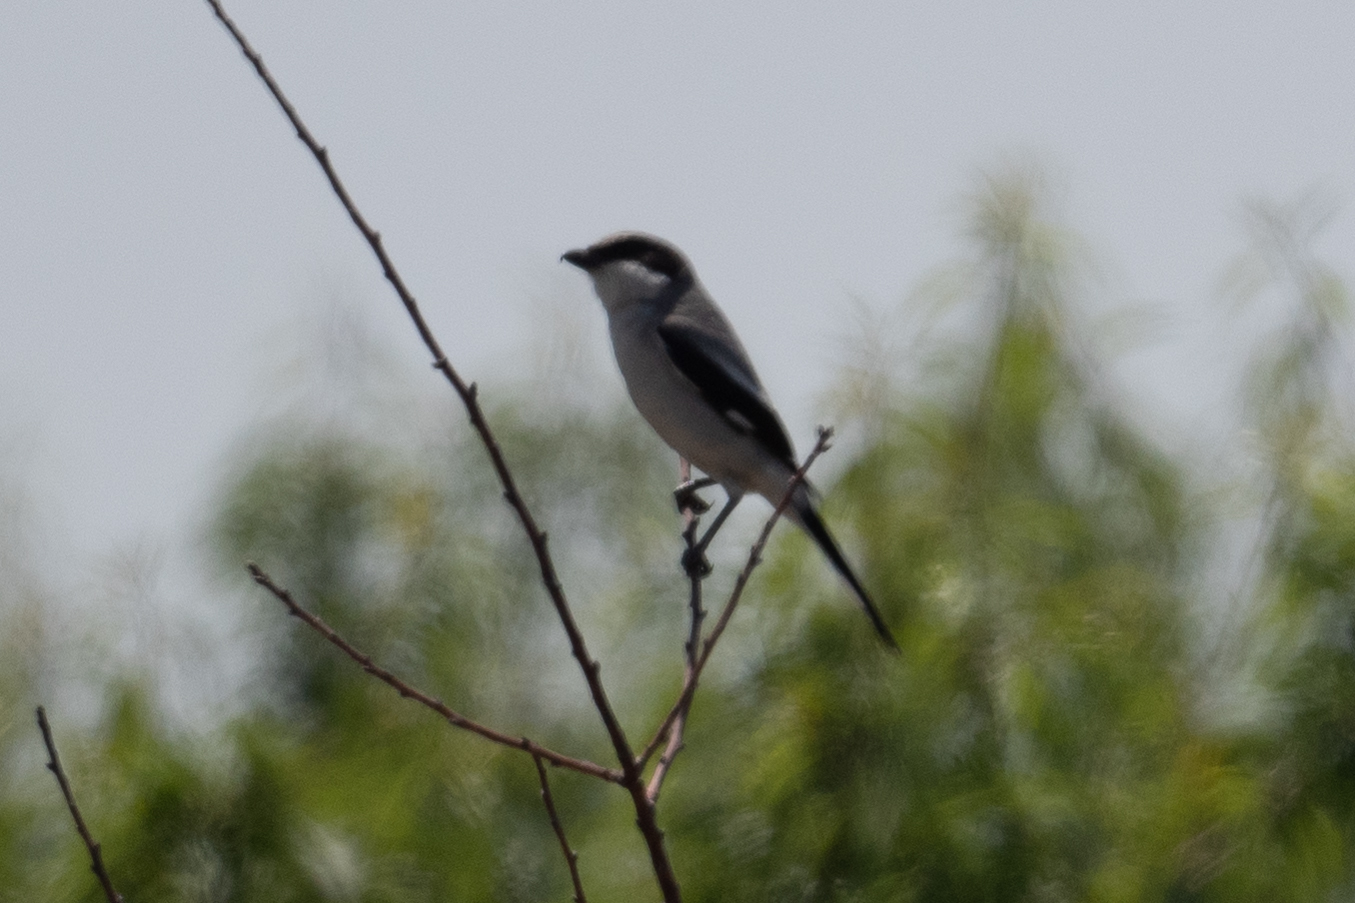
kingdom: Animalia
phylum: Chordata
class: Aves
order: Passeriformes
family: Laniidae
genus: Lanius
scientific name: Lanius ludovicianus
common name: Loggerhead shrike
